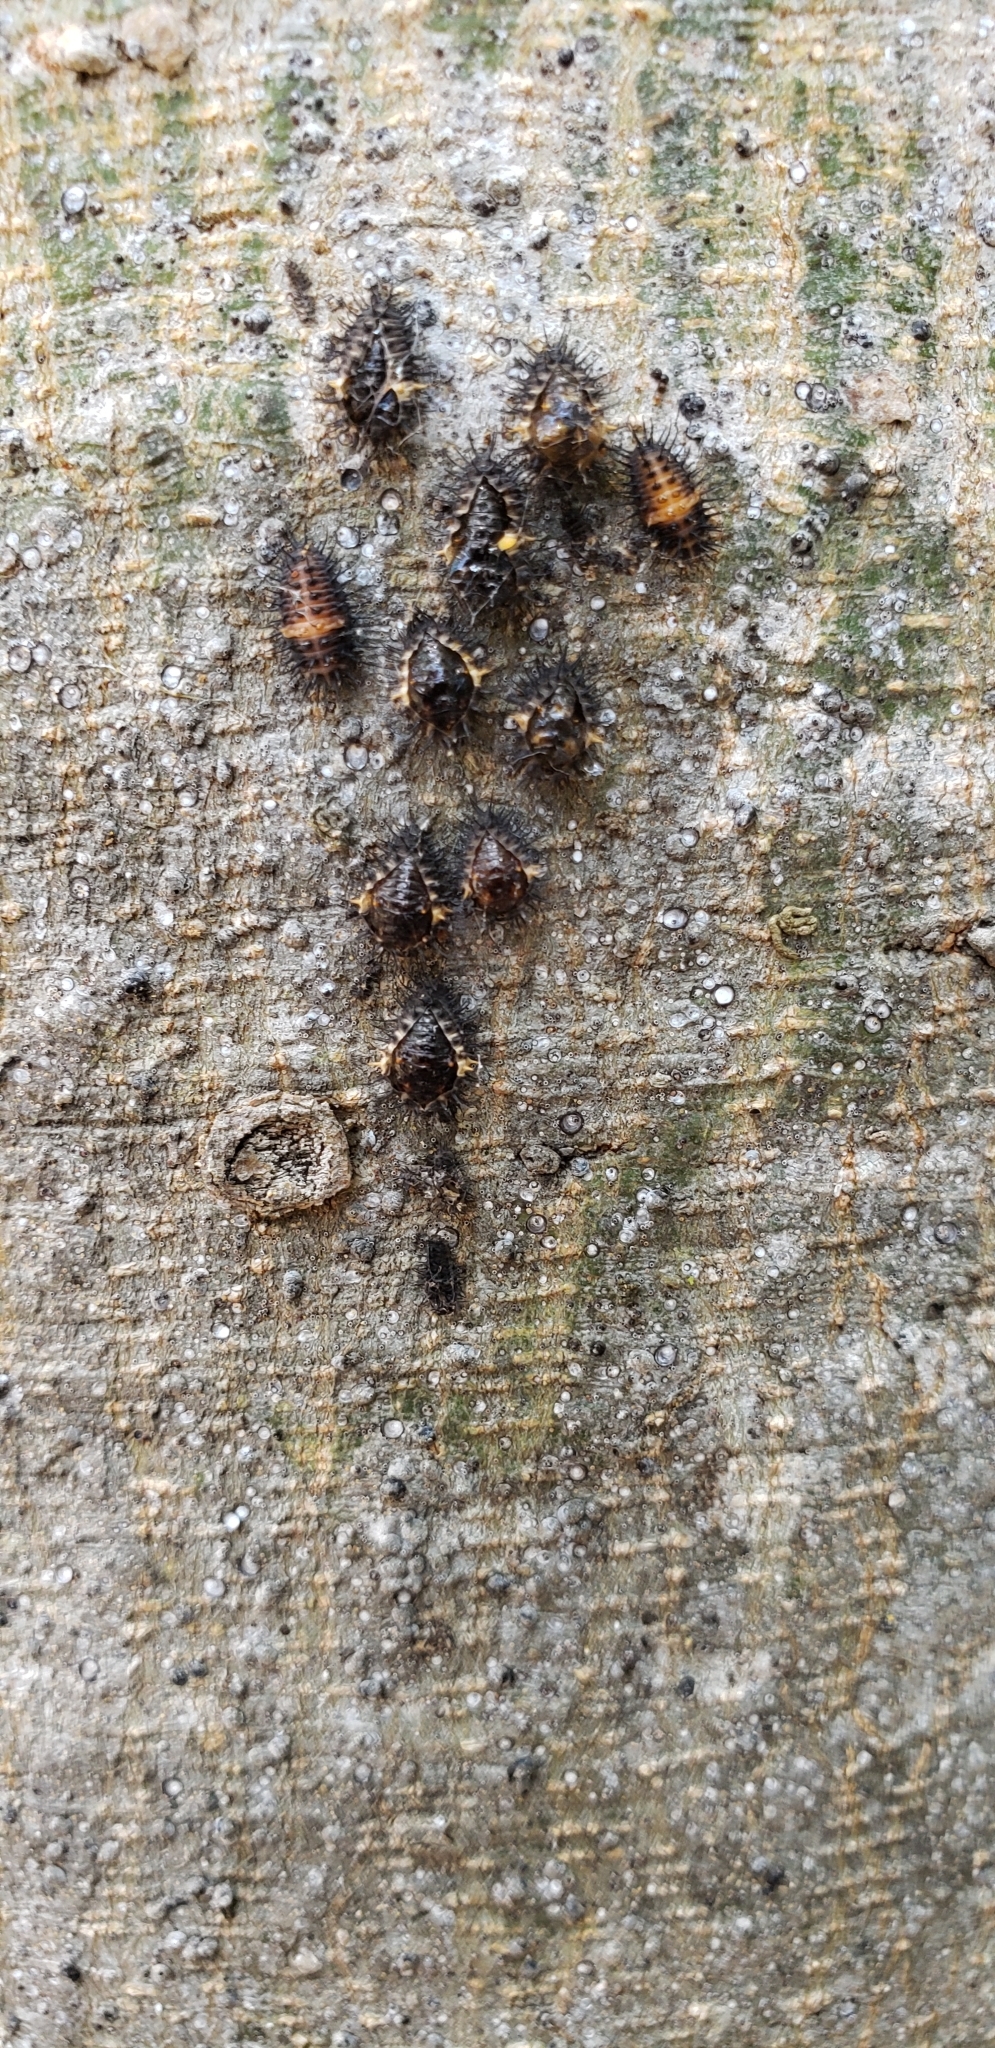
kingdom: Animalia
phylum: Arthropoda
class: Insecta
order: Coleoptera
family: Coccinellidae
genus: Chilocorus
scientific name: Chilocorus cacti
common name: Cactus lady beetle
